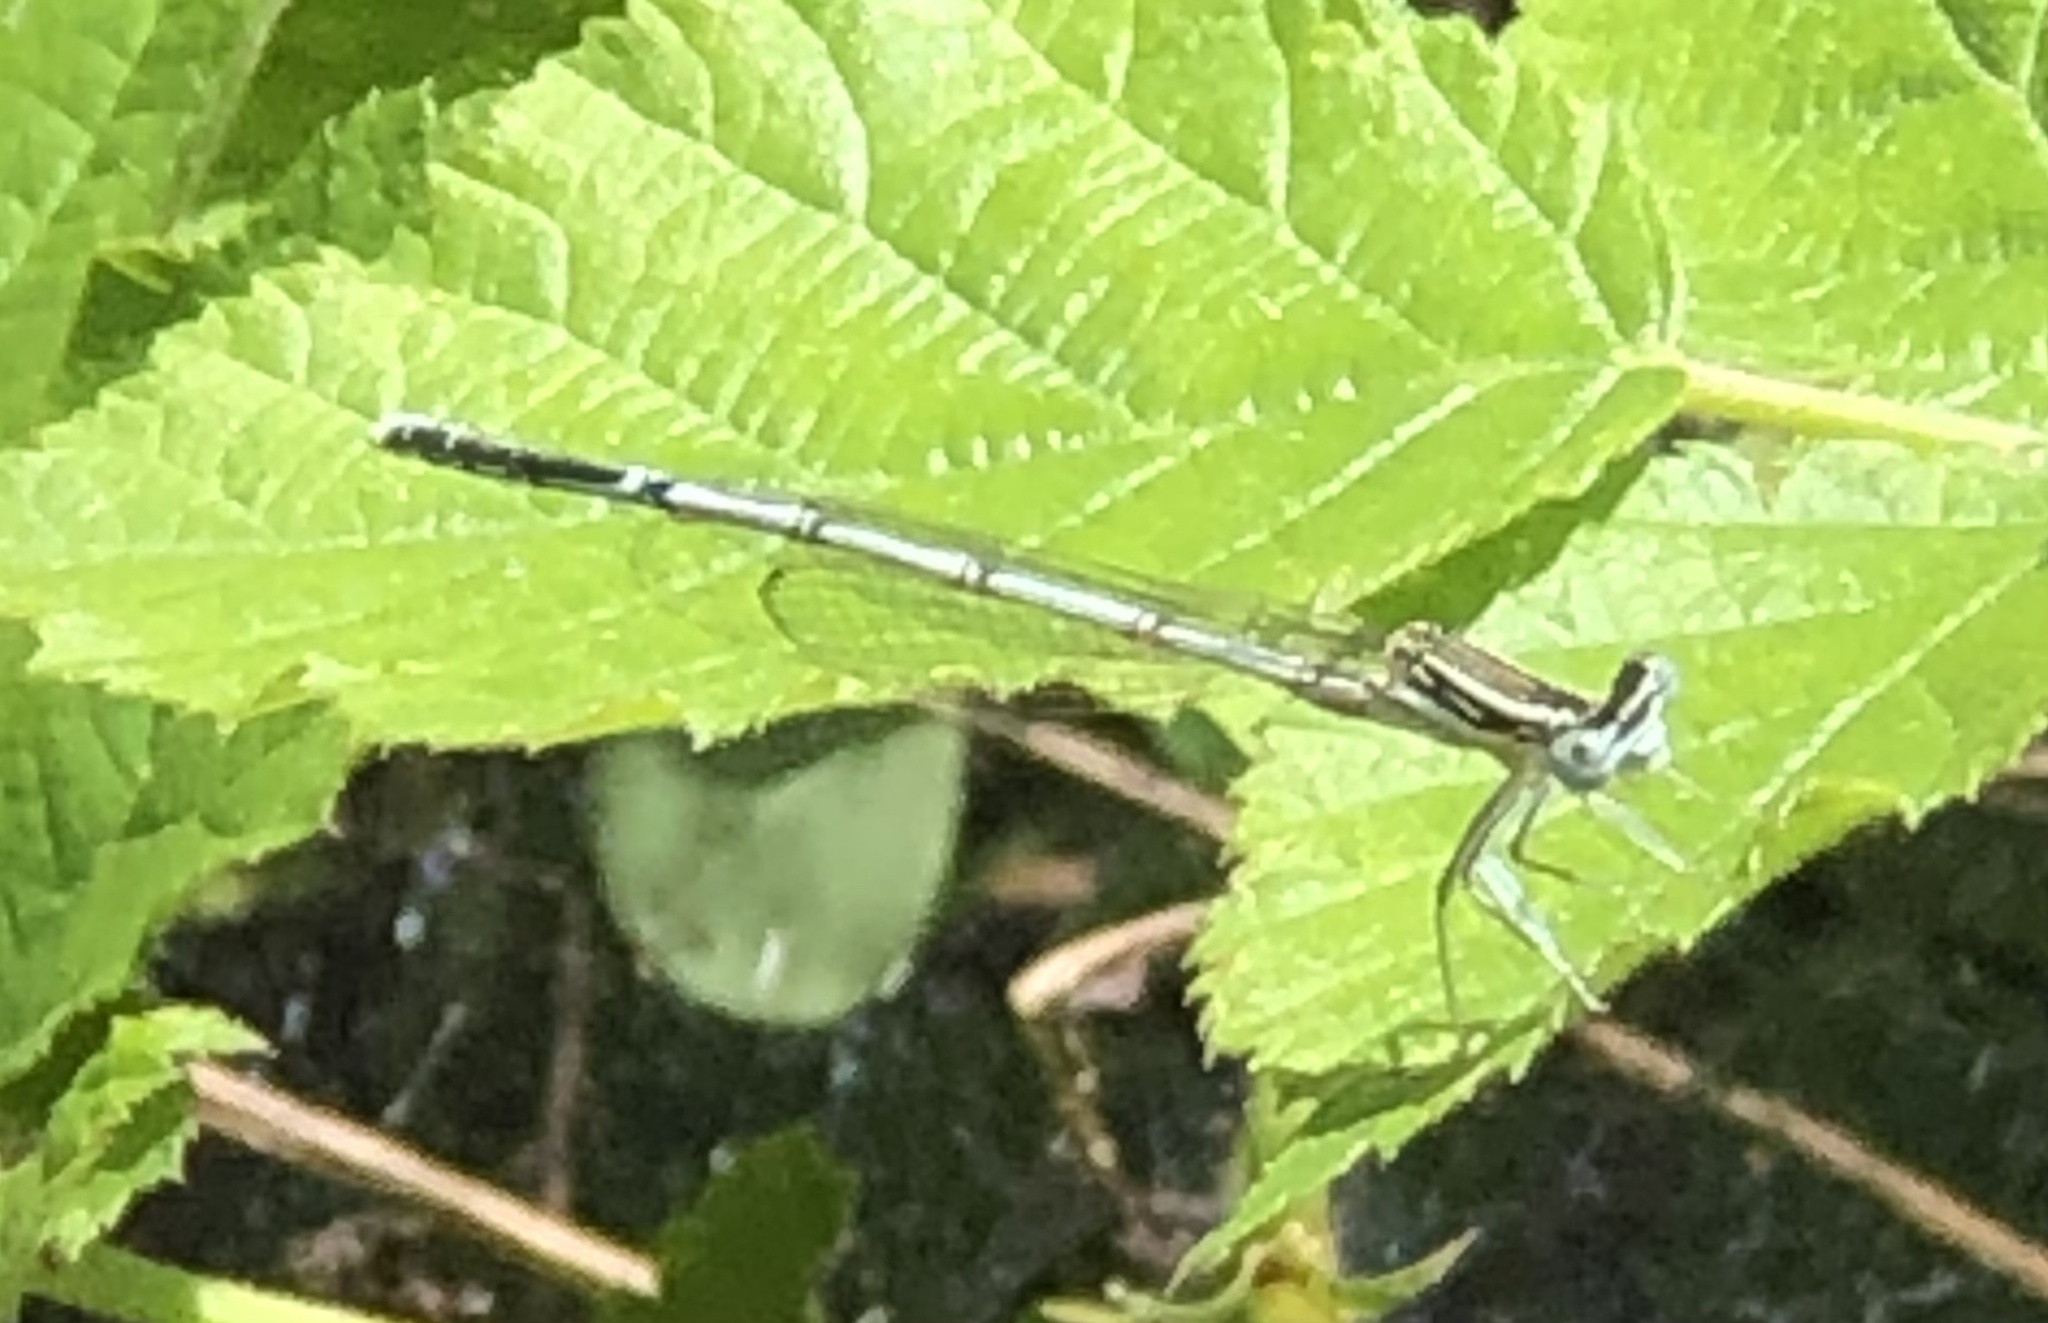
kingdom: Animalia
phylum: Arthropoda
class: Insecta
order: Odonata
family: Platycnemididae
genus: Platycnemis
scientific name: Platycnemis pennipes
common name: White-legged damselfly
